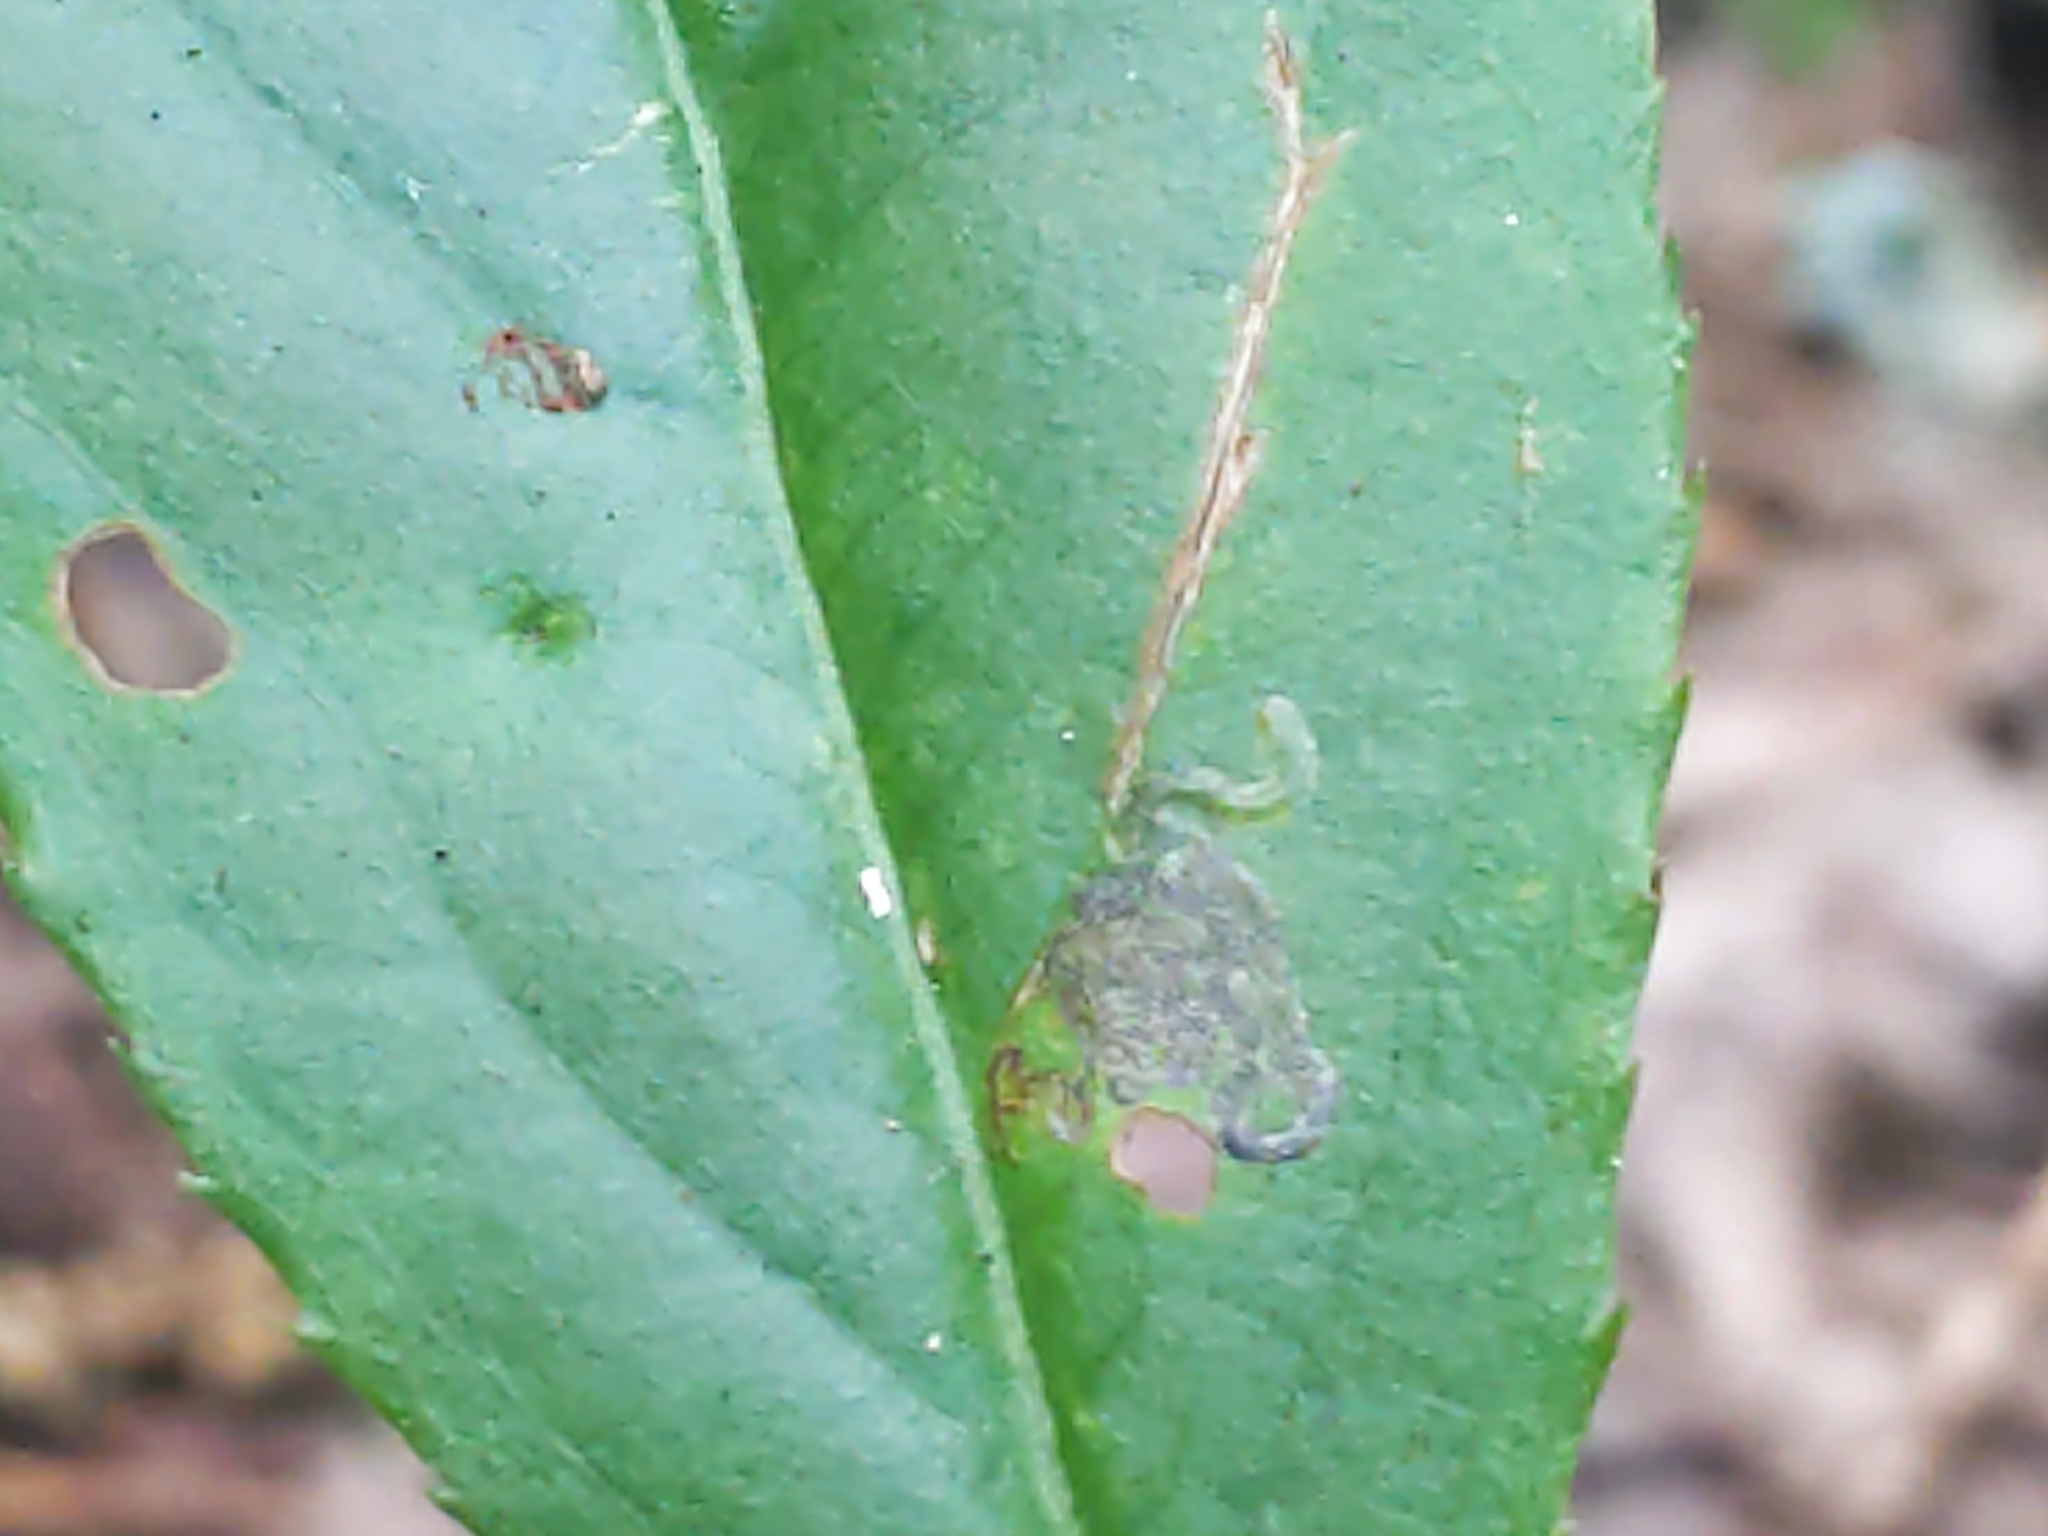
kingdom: Animalia
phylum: Arthropoda
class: Insecta
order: Lepidoptera
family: Nepticulidae
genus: Stigmella
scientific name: Stigmella prunifoliella
